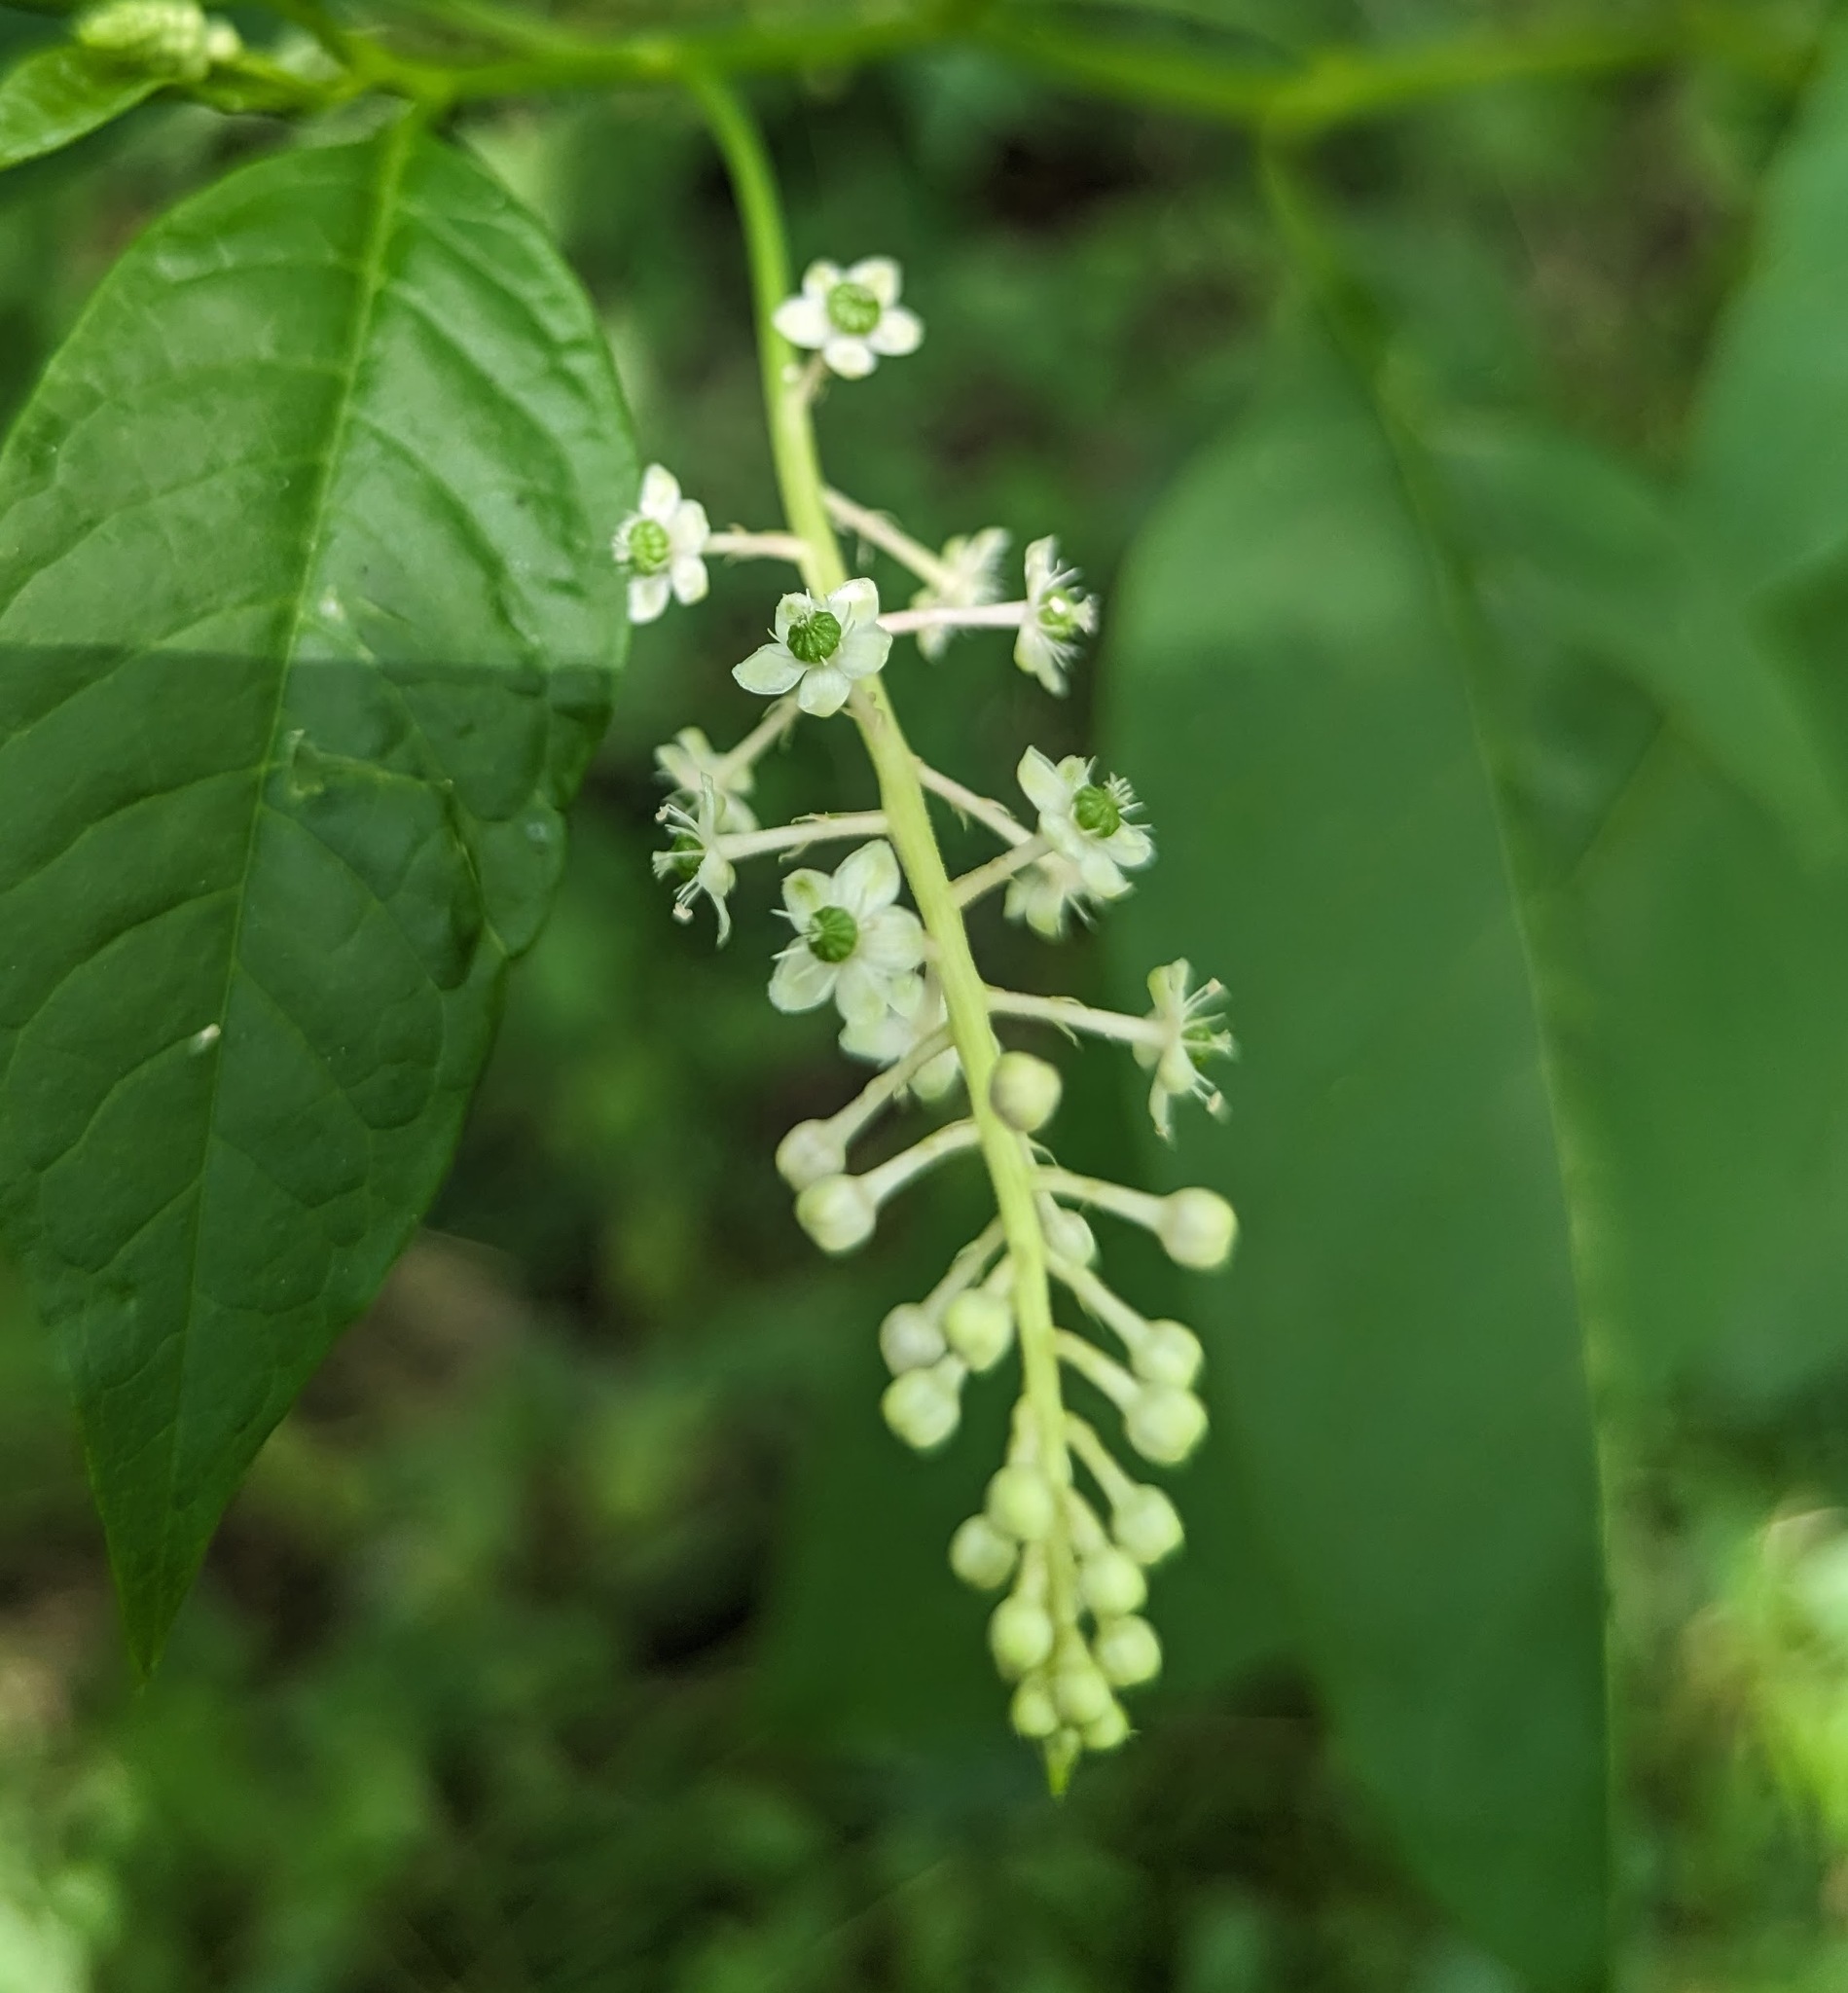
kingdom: Plantae
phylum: Tracheophyta
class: Magnoliopsida
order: Caryophyllales
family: Phytolaccaceae
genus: Phytolacca
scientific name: Phytolacca americana
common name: American pokeweed
